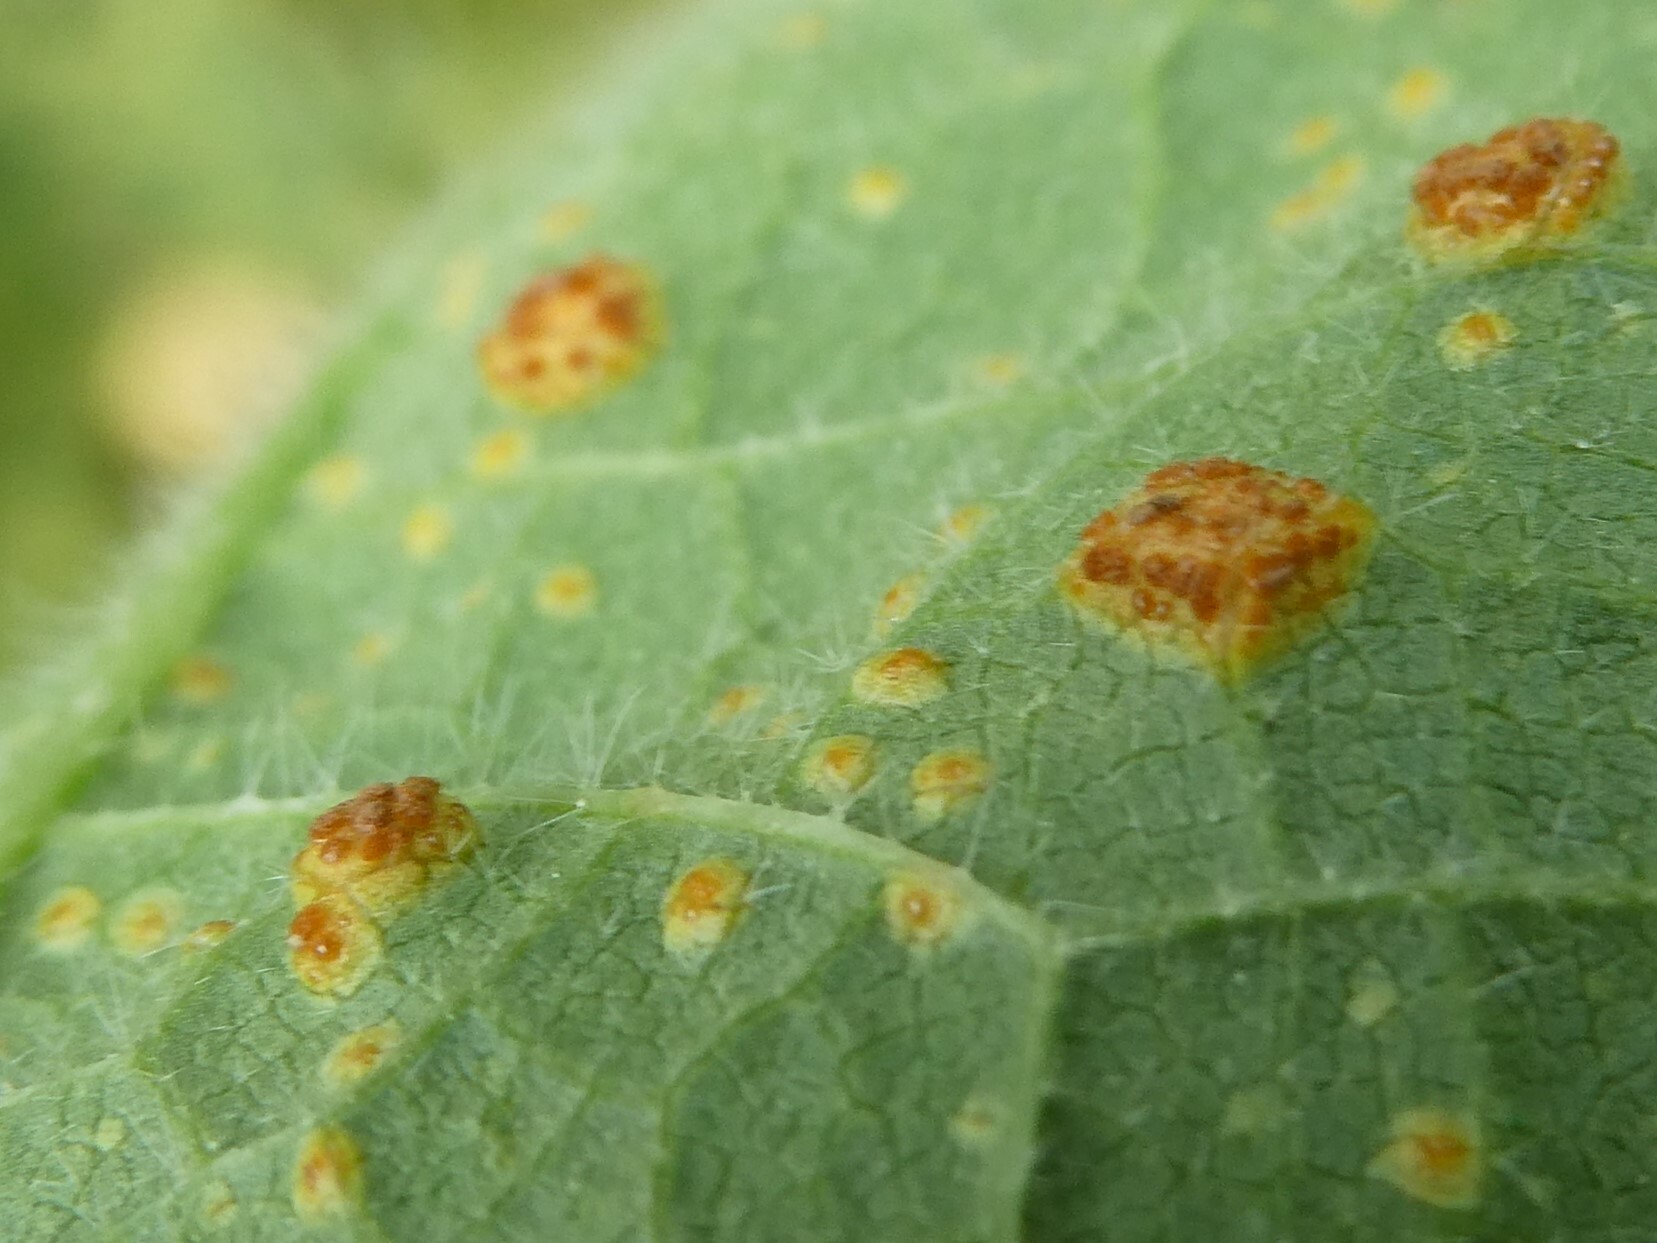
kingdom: Fungi
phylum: Basidiomycota
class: Pucciniomycetes
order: Pucciniales
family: Pucciniaceae
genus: Puccinia
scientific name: Puccinia malvacearum
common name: Hollyhock rust
